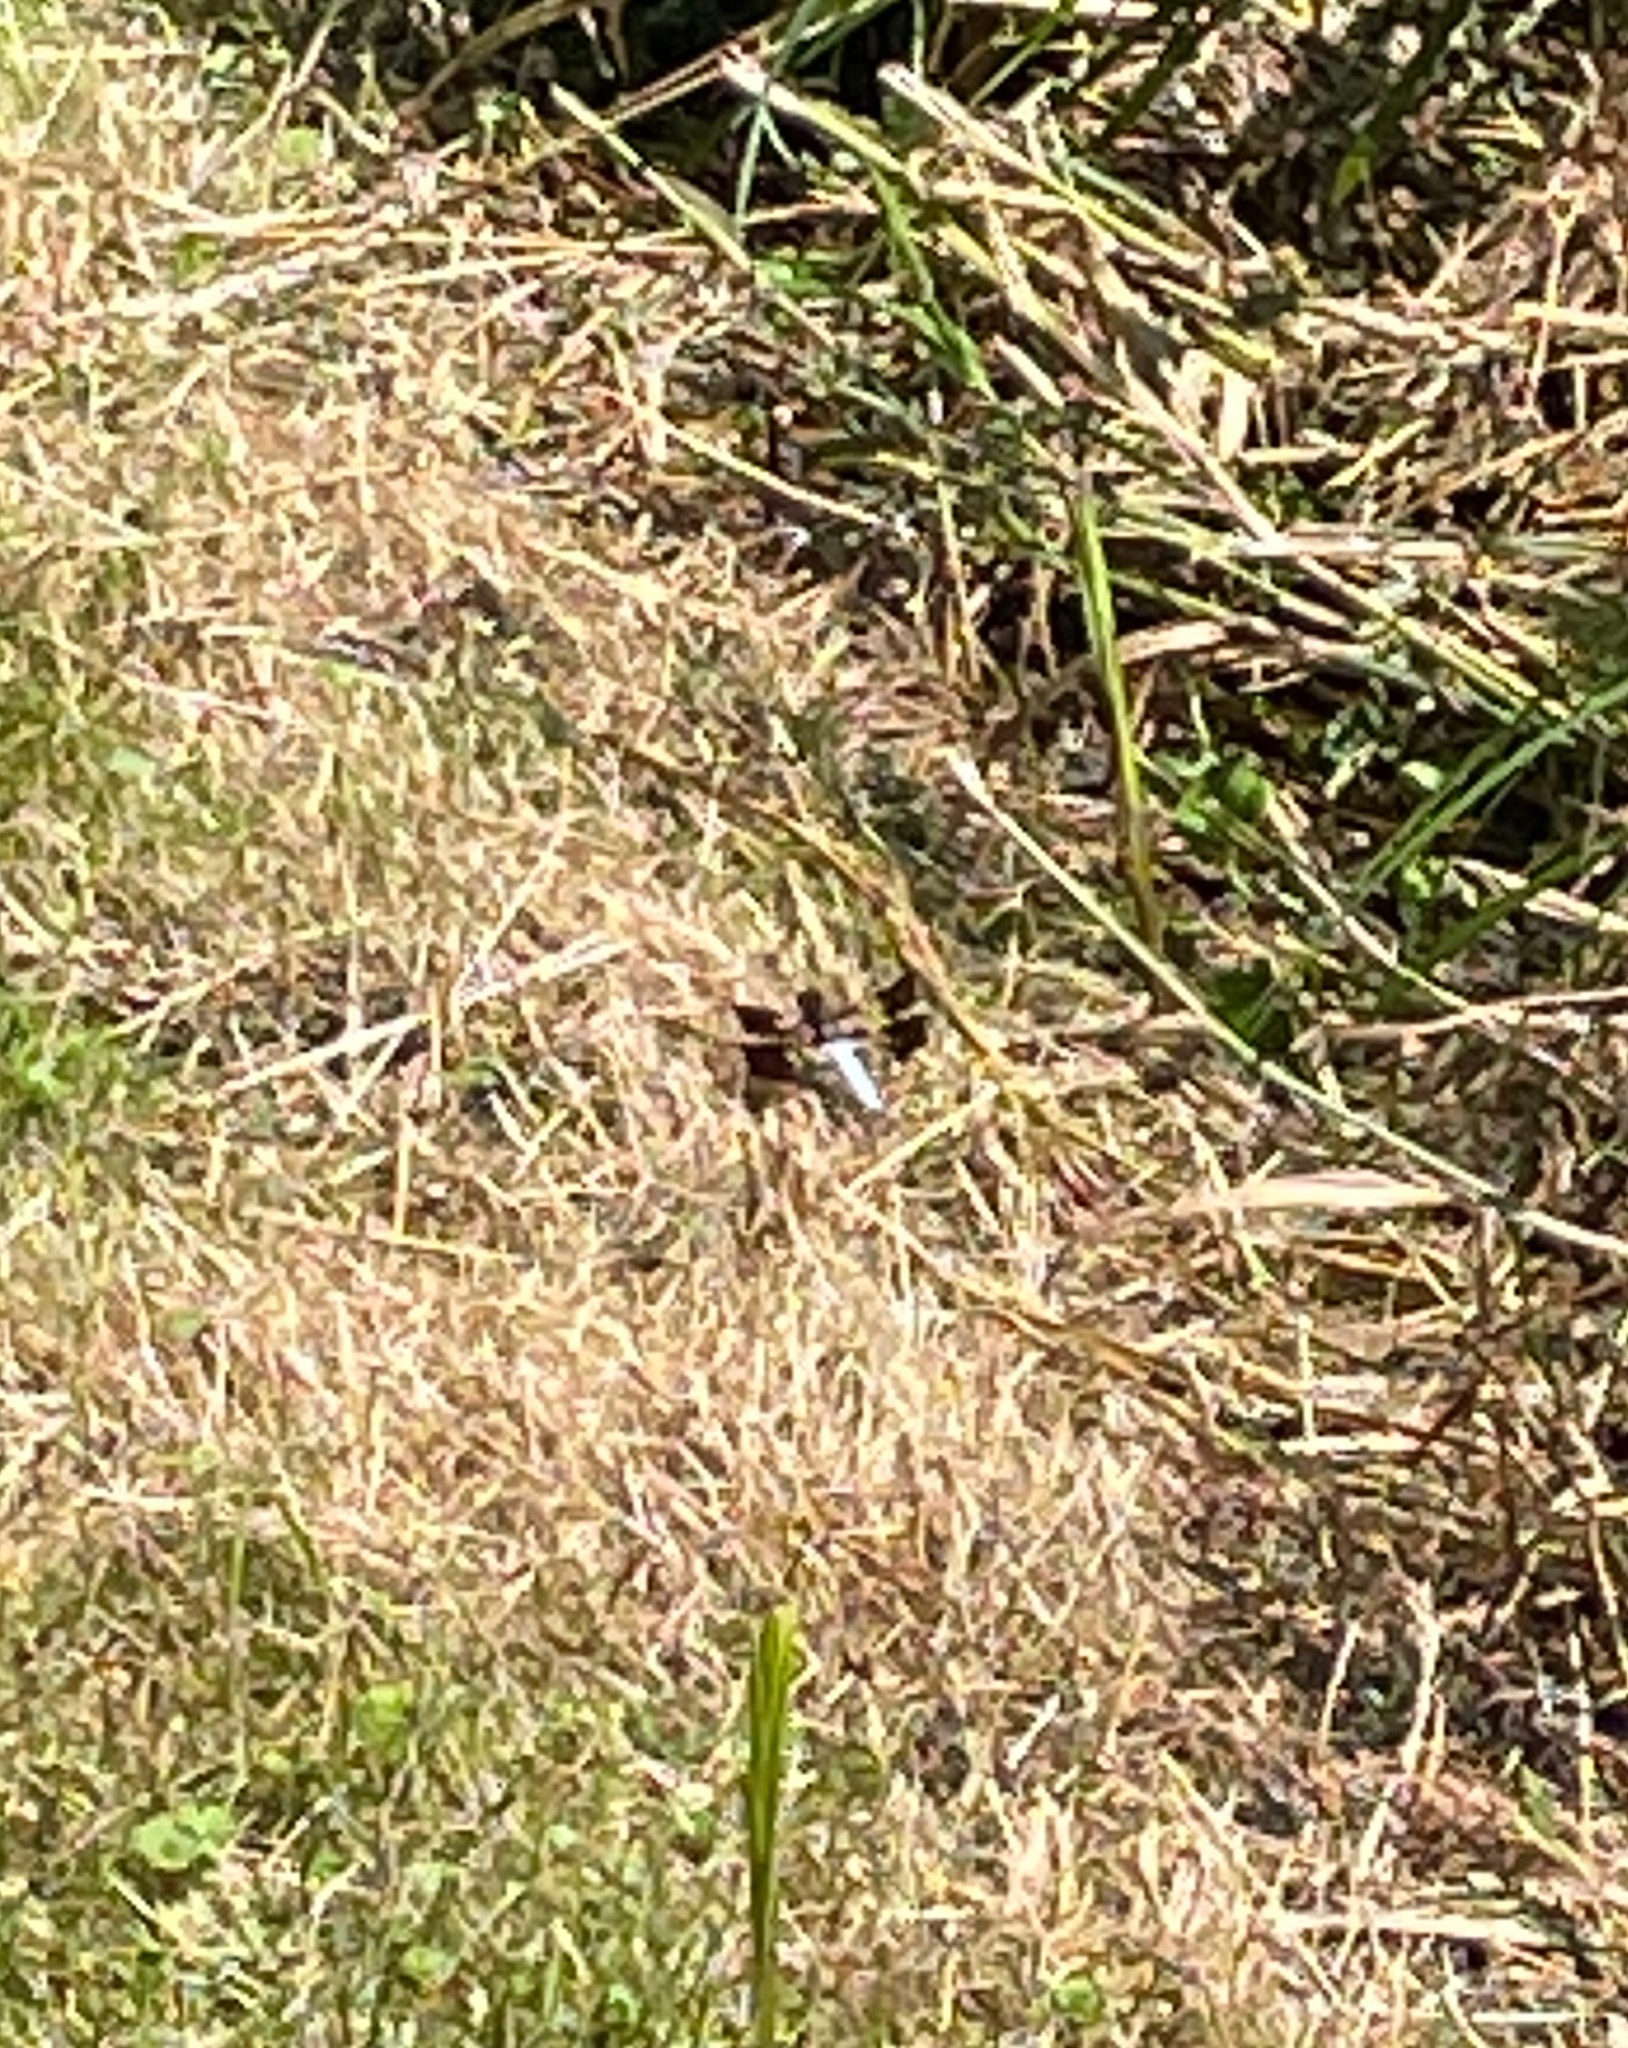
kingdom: Animalia
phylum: Arthropoda
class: Insecta
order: Odonata
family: Libellulidae
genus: Plathemis
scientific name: Plathemis lydia
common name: Common whitetail
